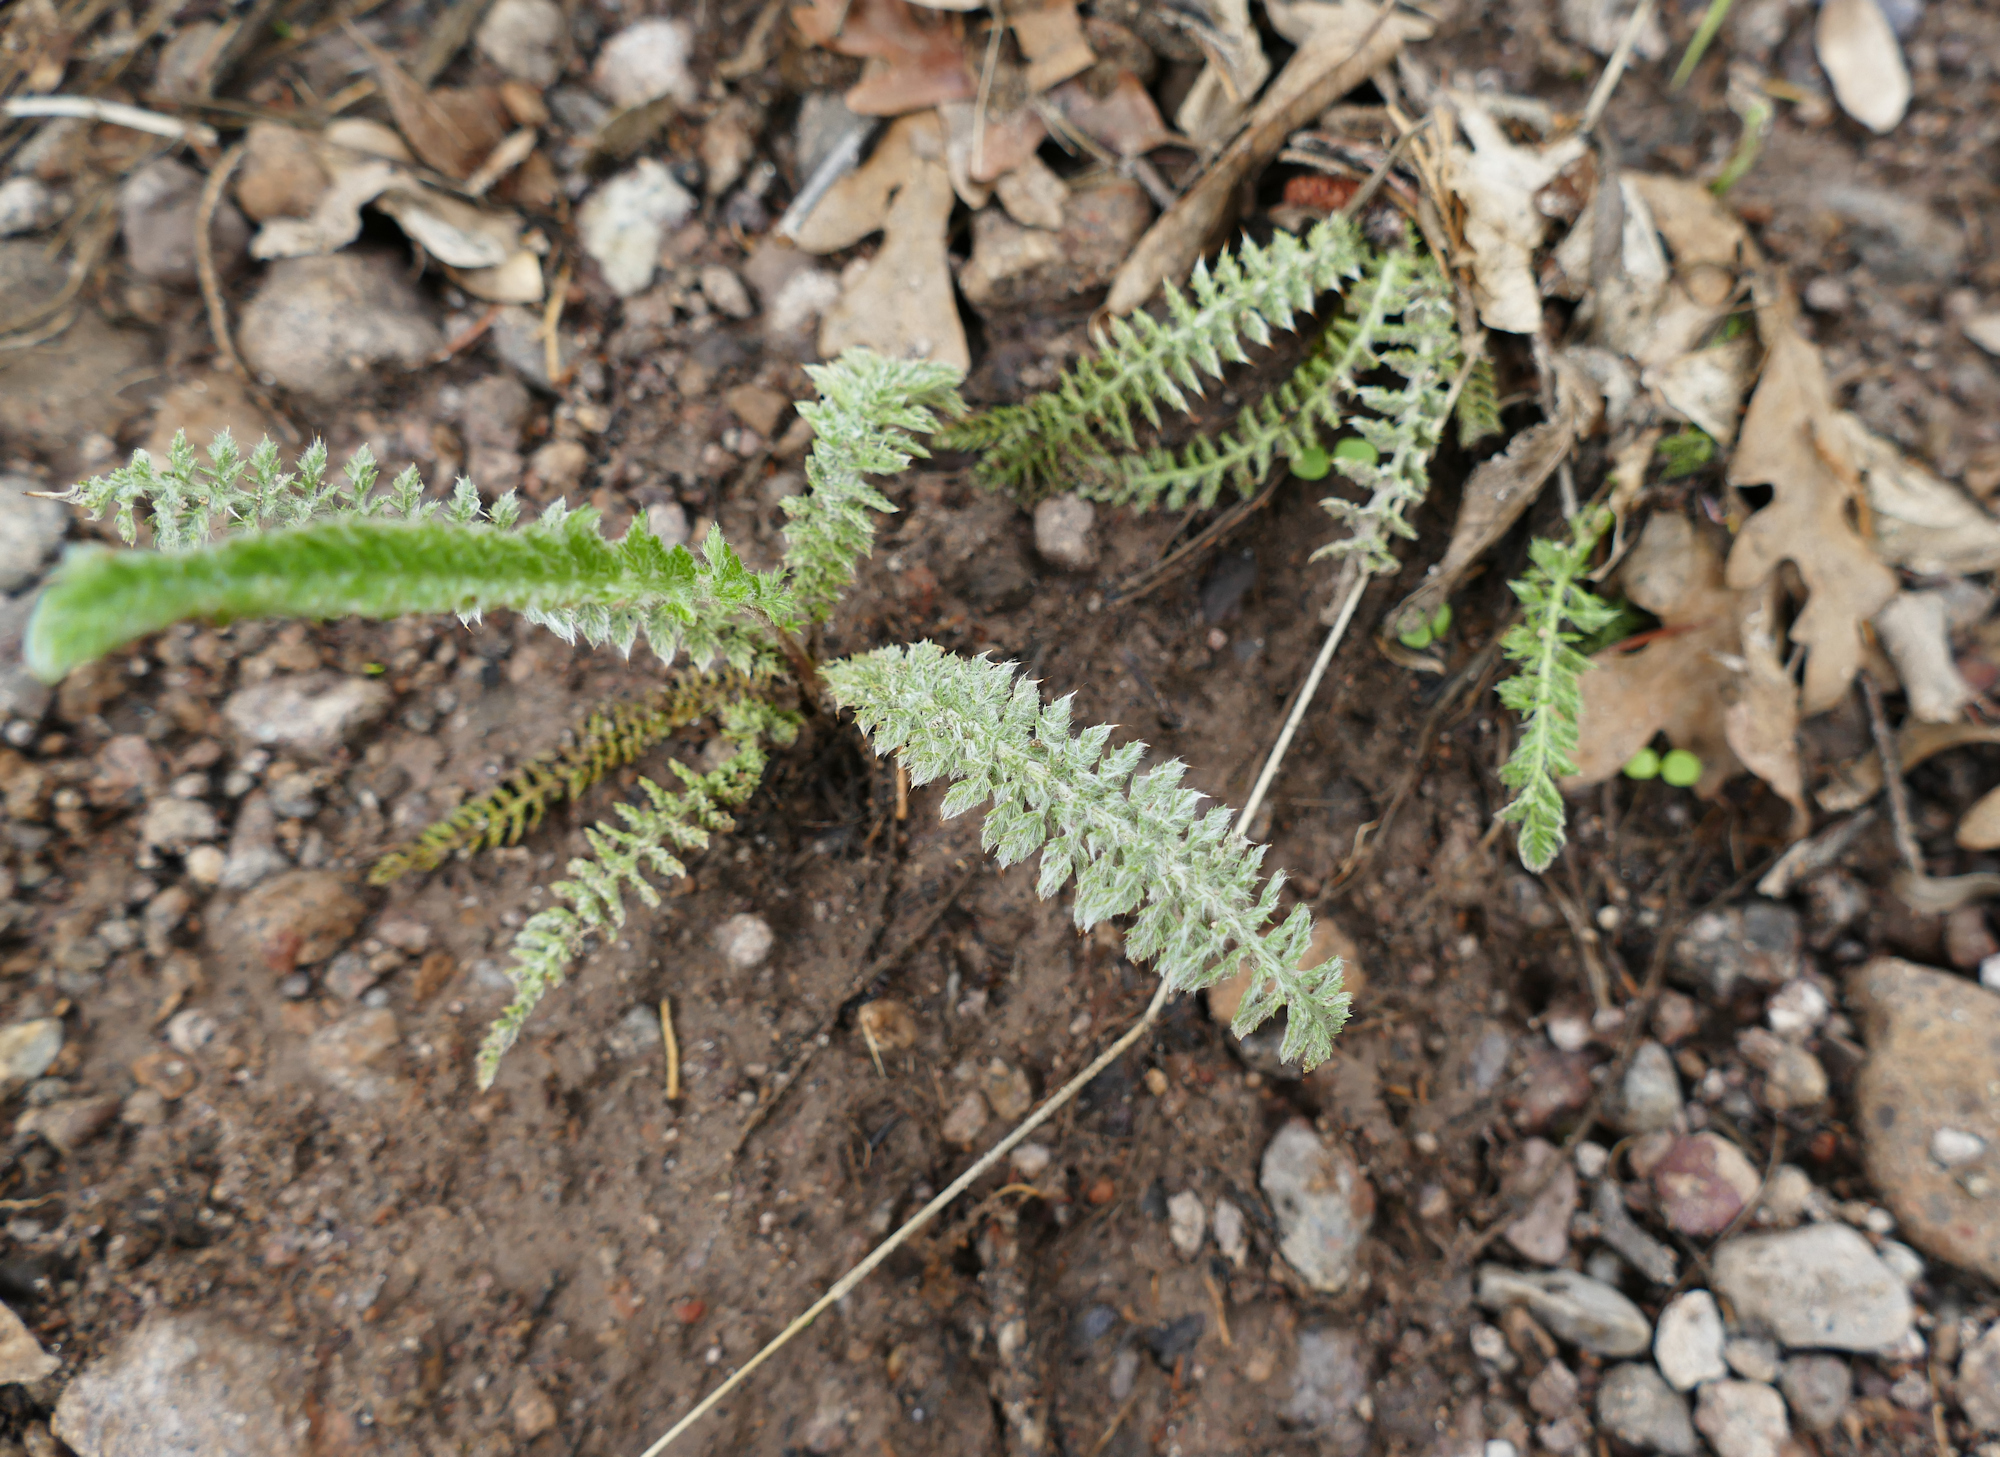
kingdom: Plantae
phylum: Tracheophyta
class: Magnoliopsida
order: Asterales
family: Asteraceae
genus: Achillea
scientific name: Achillea millefolium
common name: Yarrow
